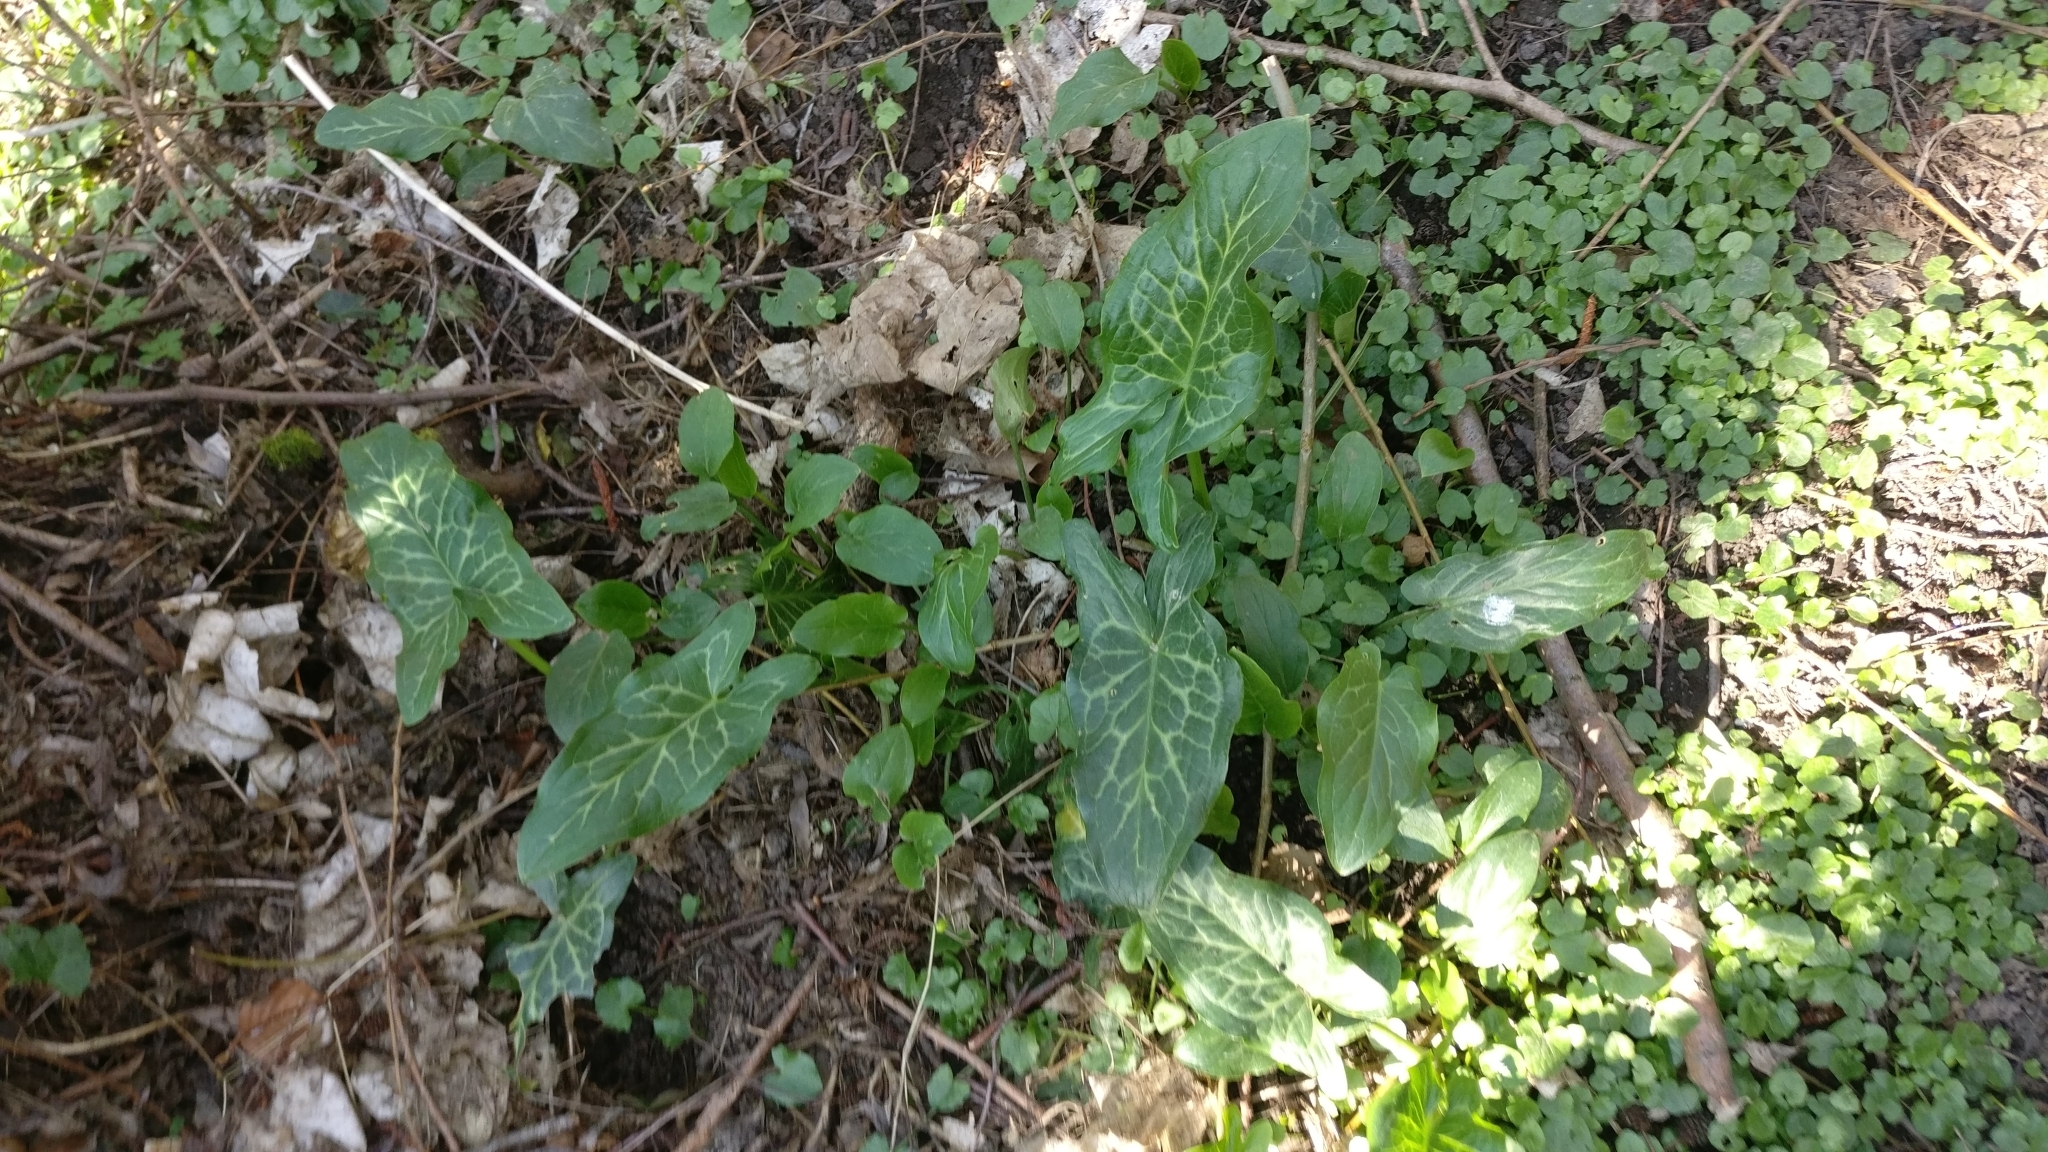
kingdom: Plantae
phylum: Tracheophyta
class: Liliopsida
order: Alismatales
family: Araceae
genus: Arum
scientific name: Arum italicum
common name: Italian lords-and-ladies
